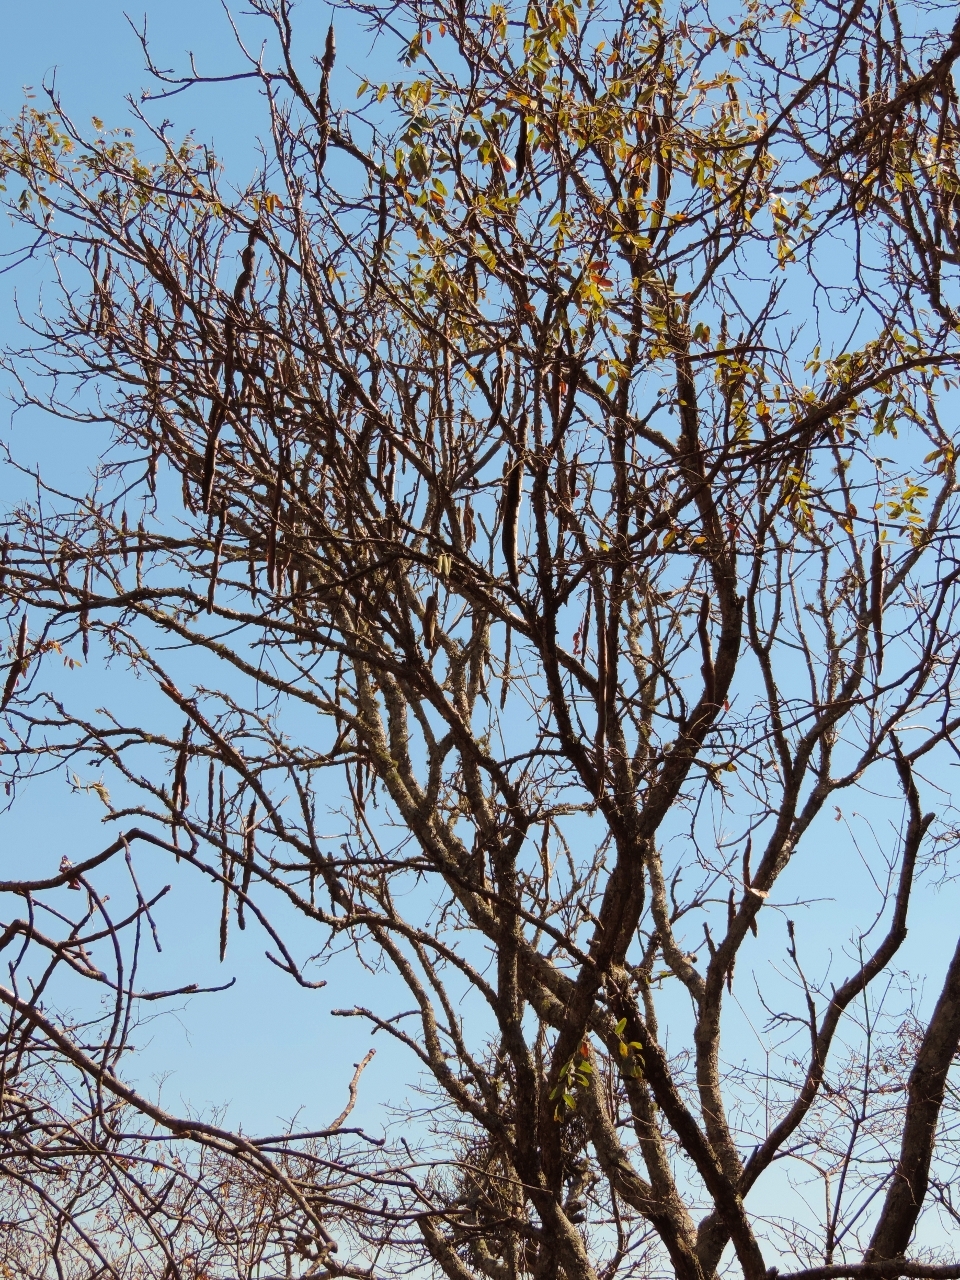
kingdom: Plantae
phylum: Tracheophyta
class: Magnoliopsida
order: Fabales
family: Fabaceae
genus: Cassia
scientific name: Cassia abbreviata
